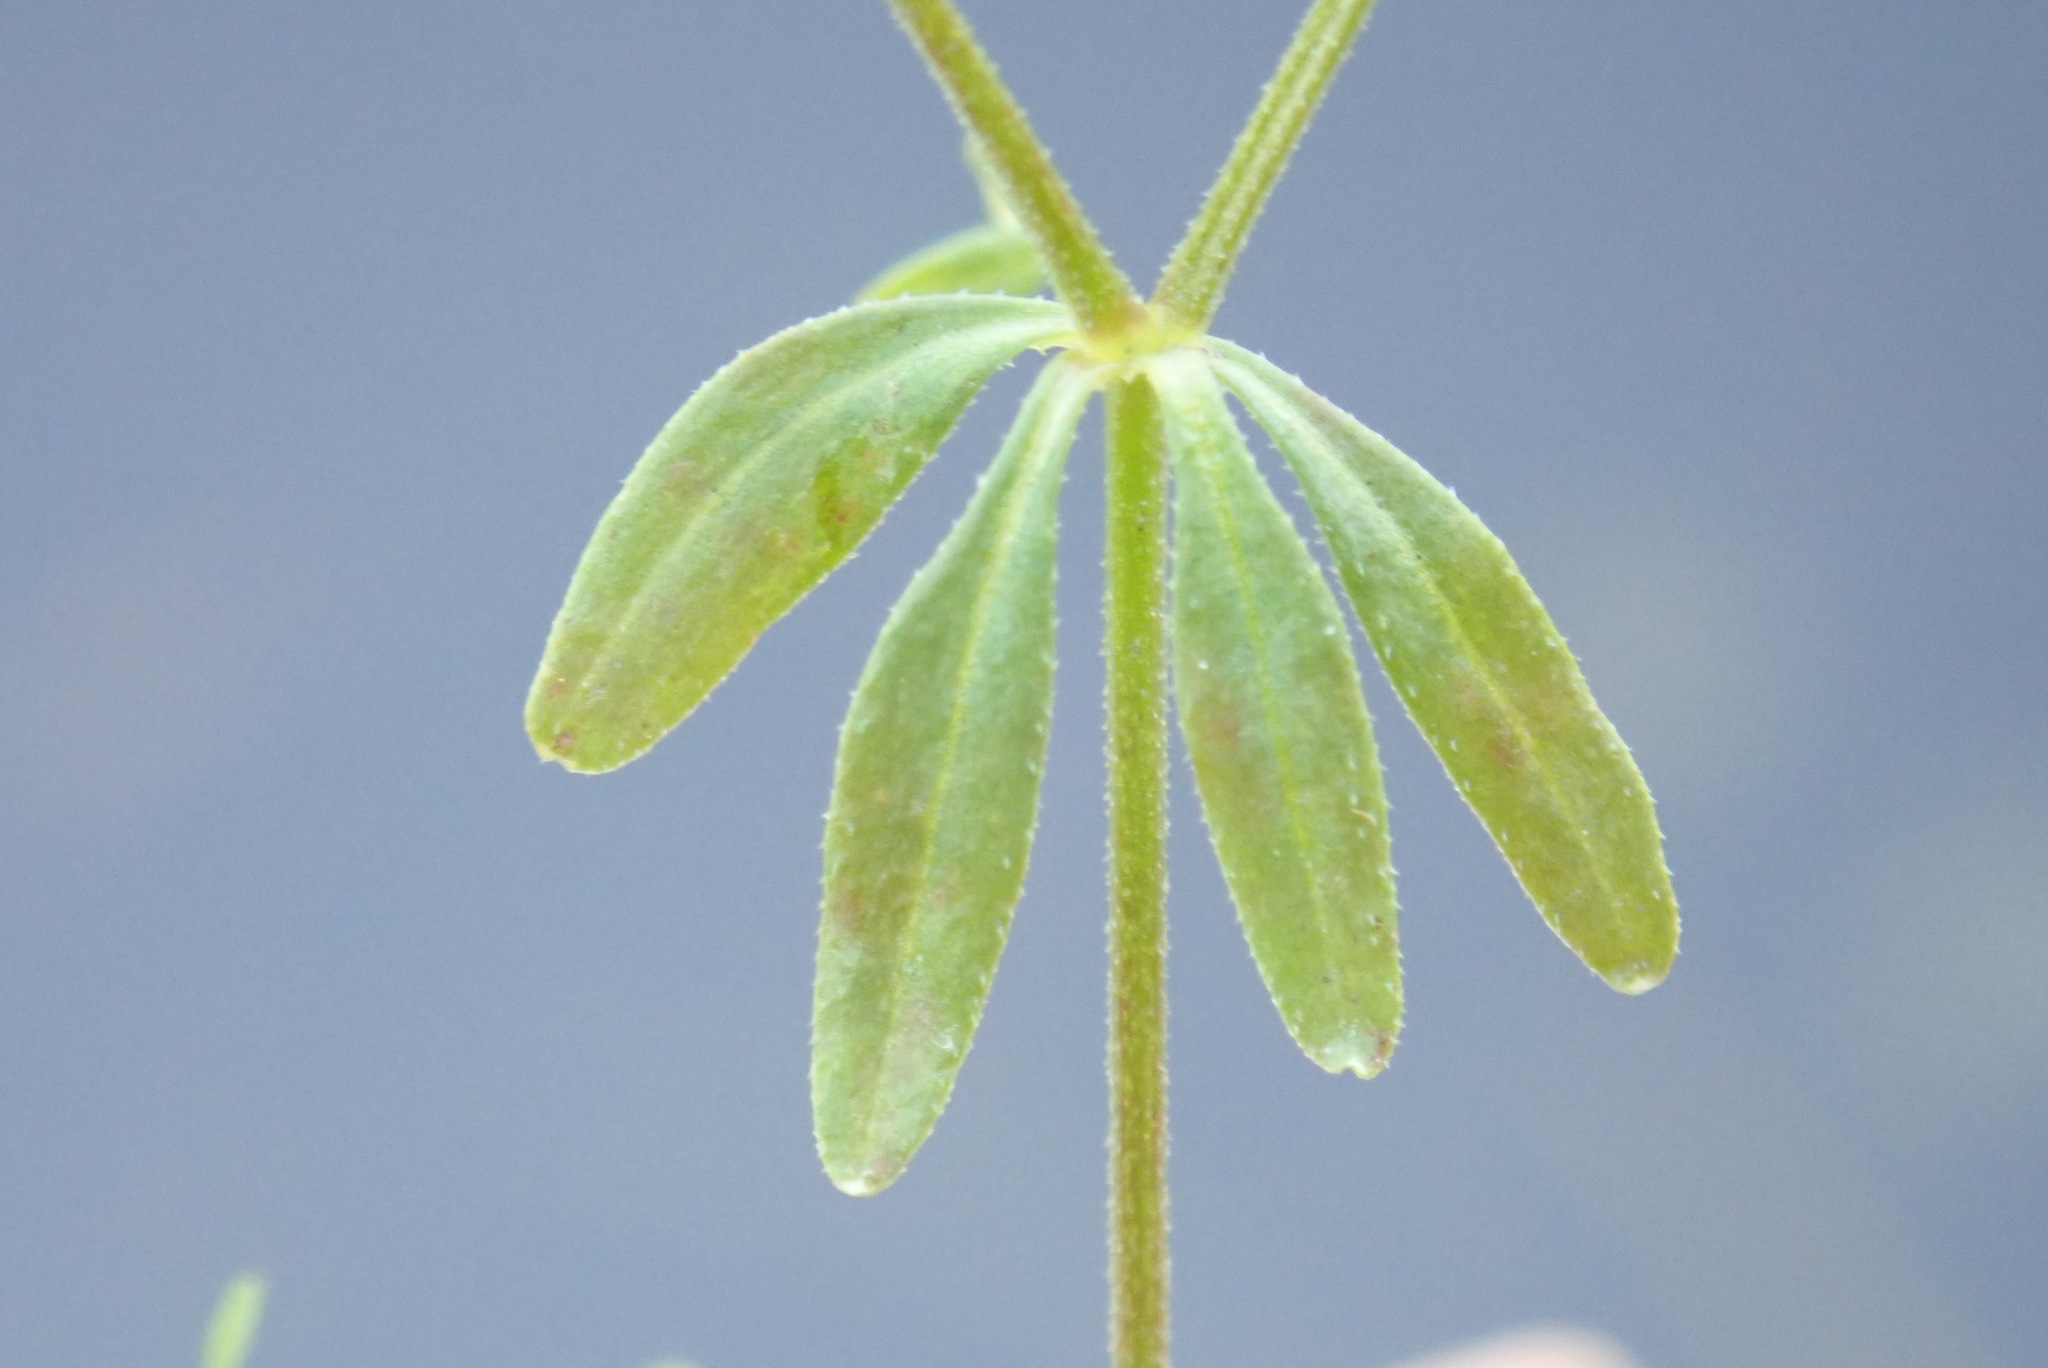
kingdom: Plantae
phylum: Tracheophyta
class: Magnoliopsida
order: Gentianales
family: Rubiaceae
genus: Galium
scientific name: Galium tinctorium
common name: Bedstraw
